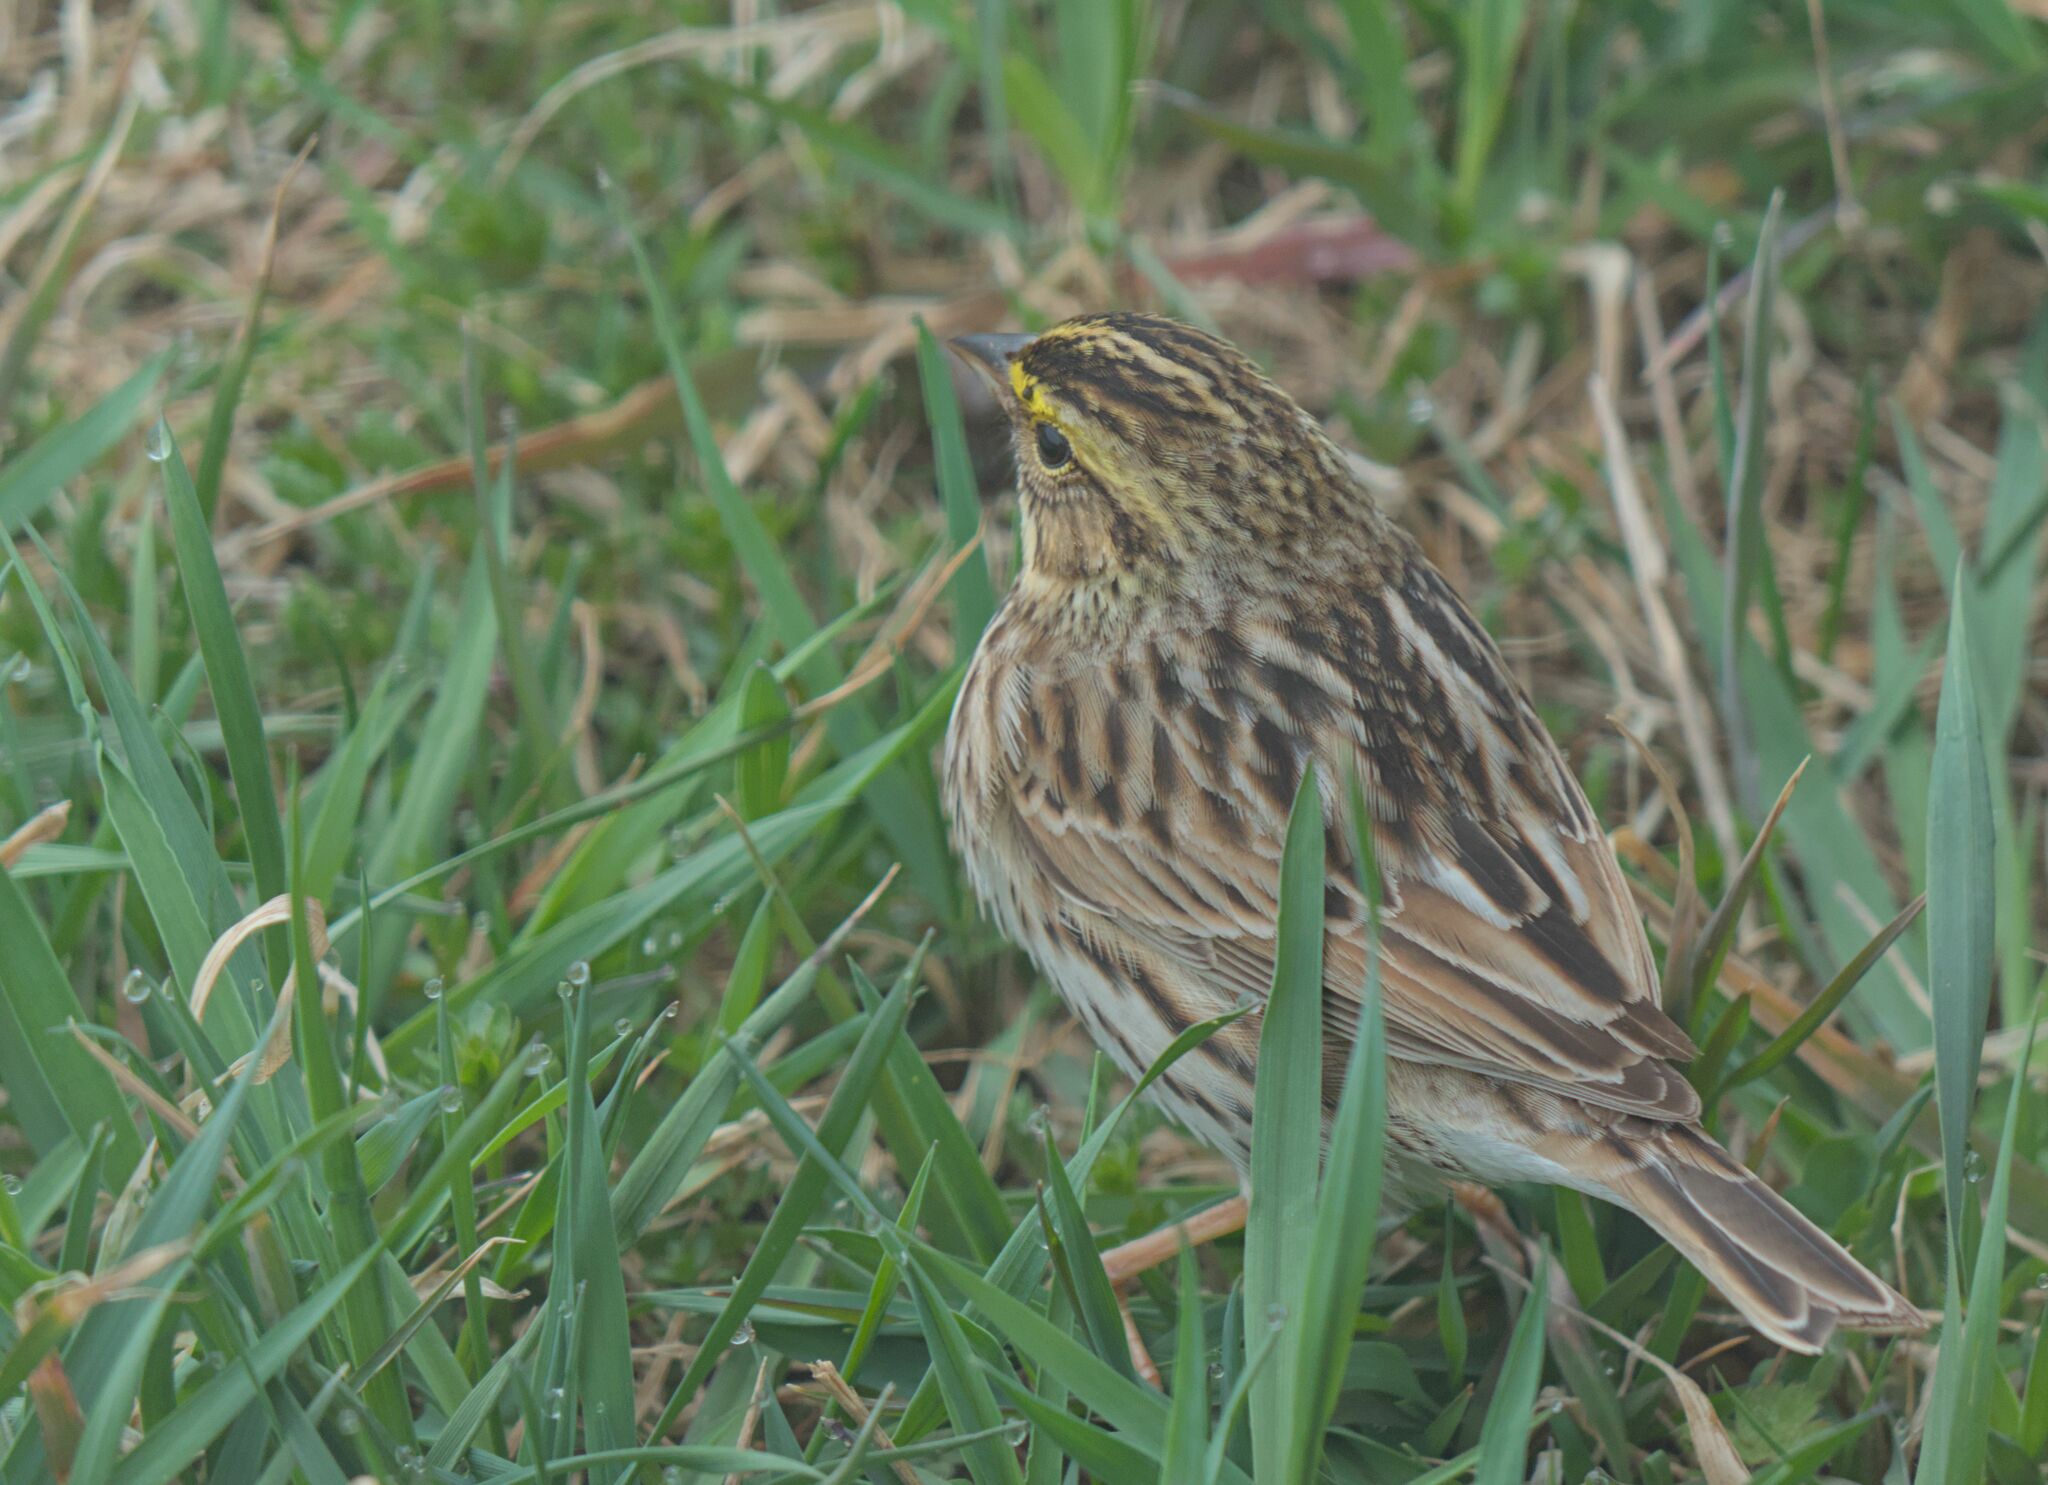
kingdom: Animalia
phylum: Chordata
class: Aves
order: Passeriformes
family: Passerellidae
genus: Passerculus
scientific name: Passerculus sandwichensis
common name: Savannah sparrow
